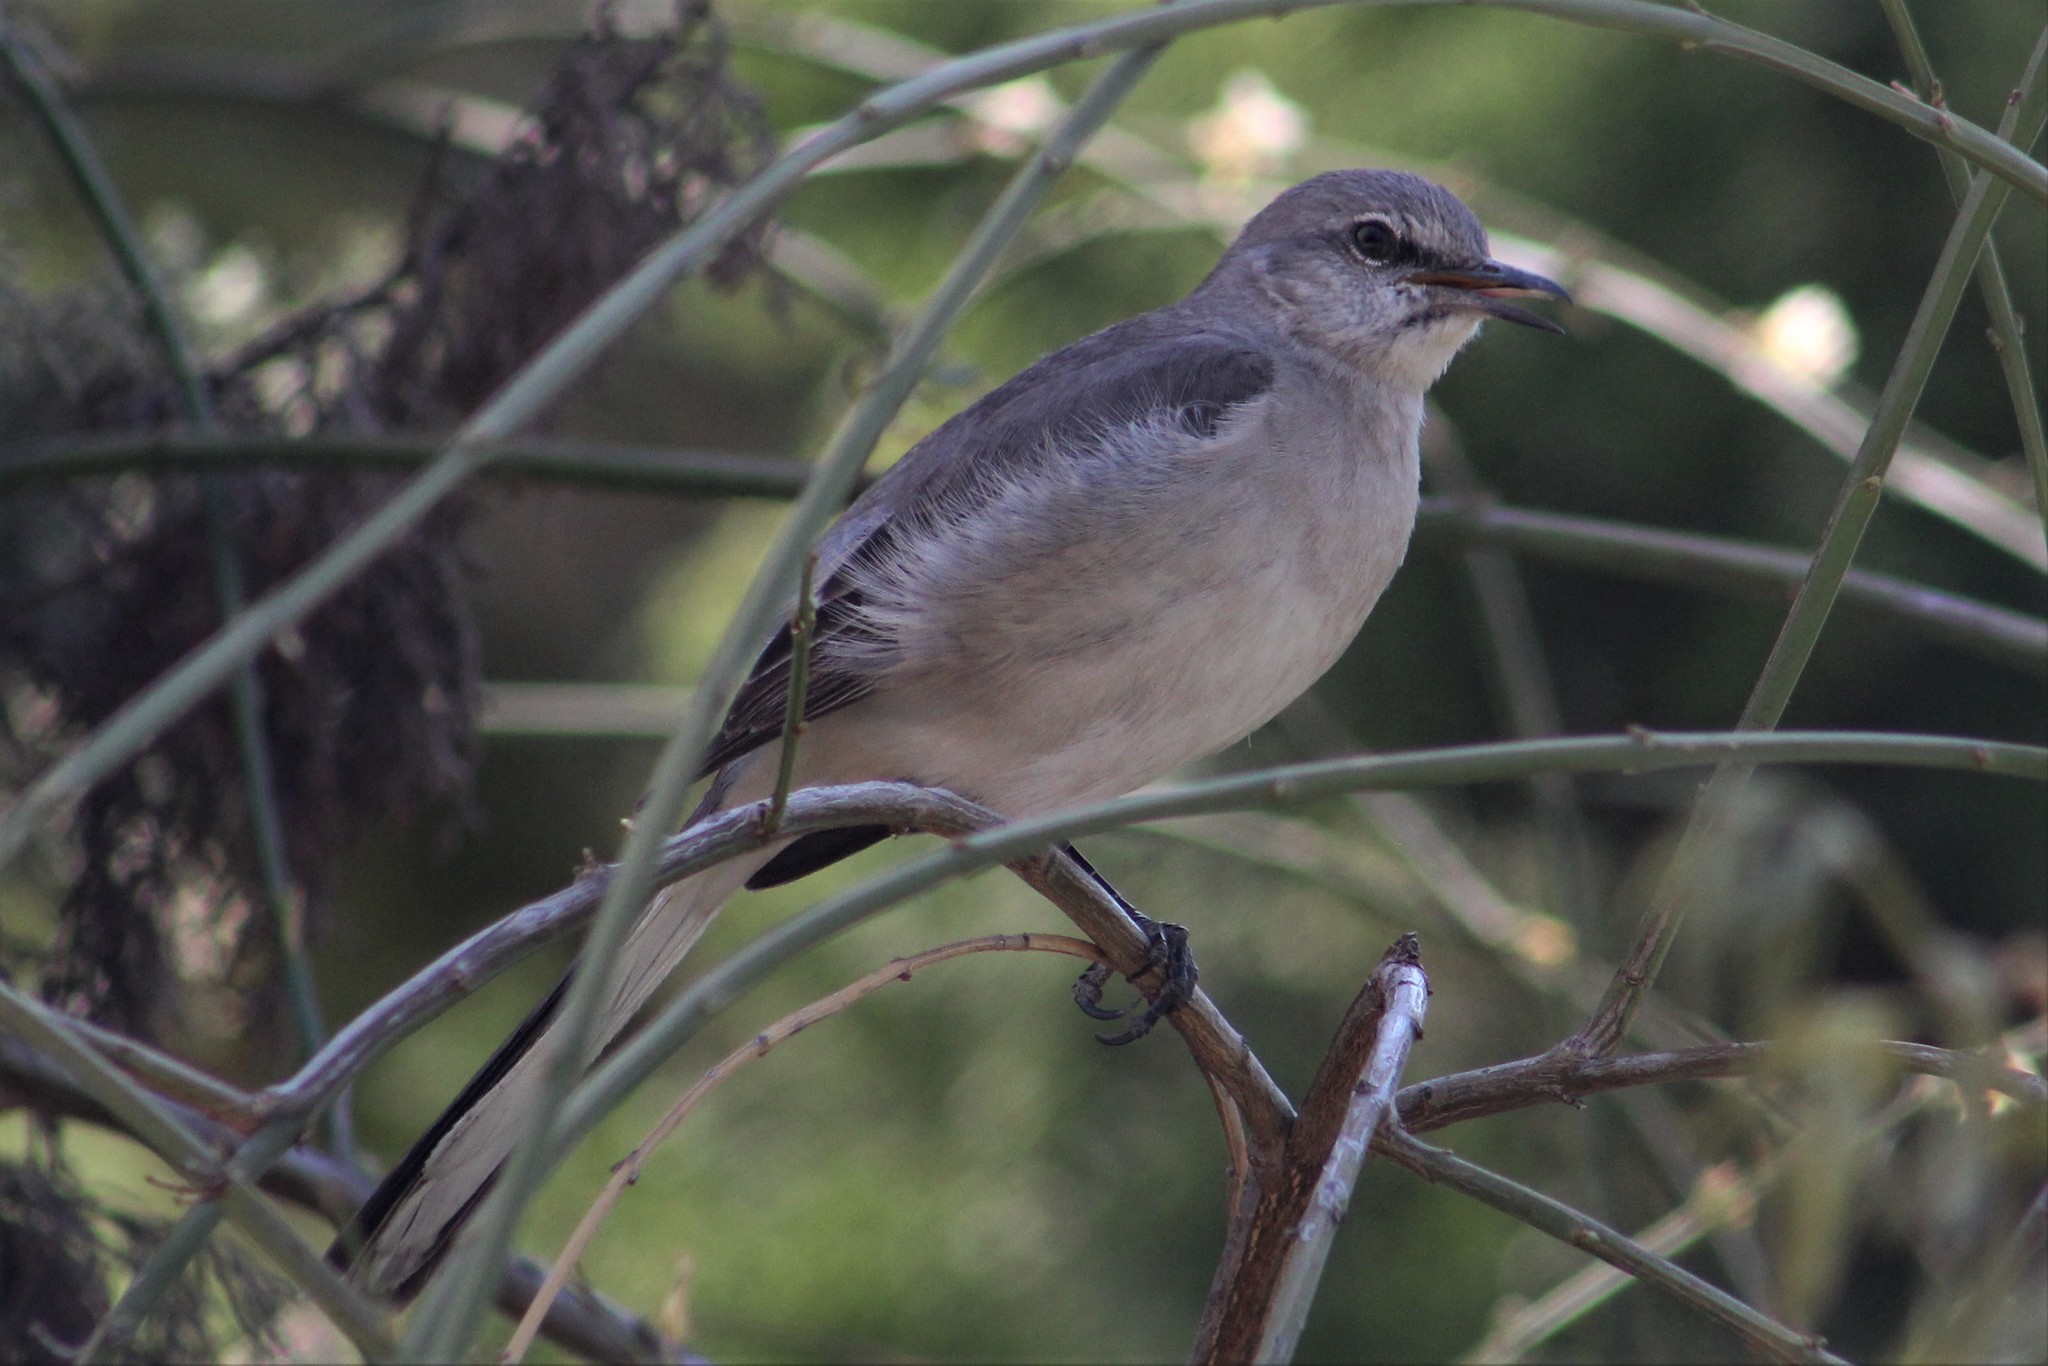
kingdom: Animalia
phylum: Chordata
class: Aves
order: Passeriformes
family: Mimidae
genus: Mimus
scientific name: Mimus polyglottos
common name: Northern mockingbird
